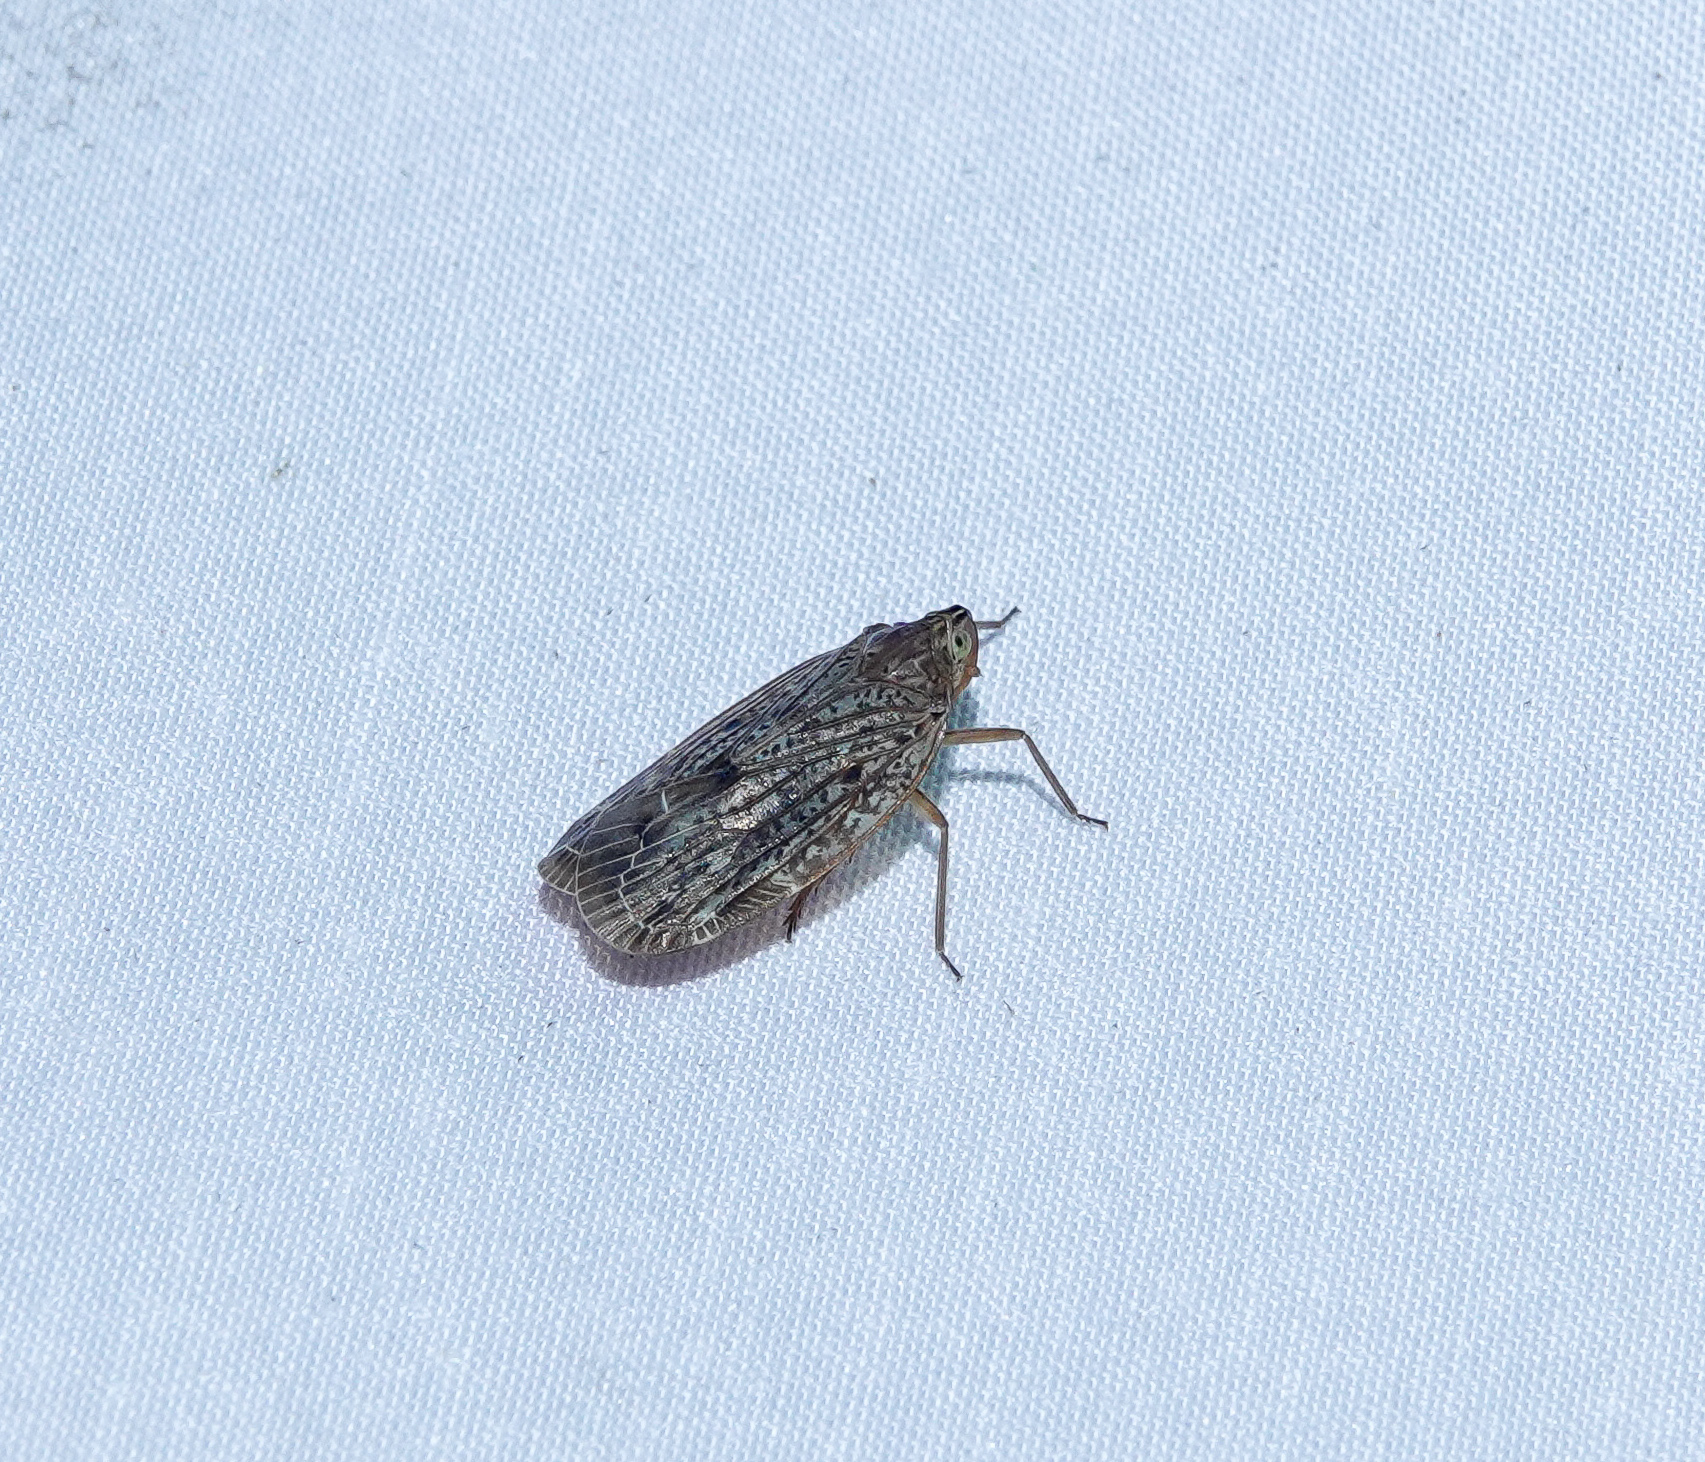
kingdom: Animalia
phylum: Arthropoda
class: Insecta
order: Hemiptera
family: Achilidae
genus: Faventilla
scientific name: Faventilla pustulata
